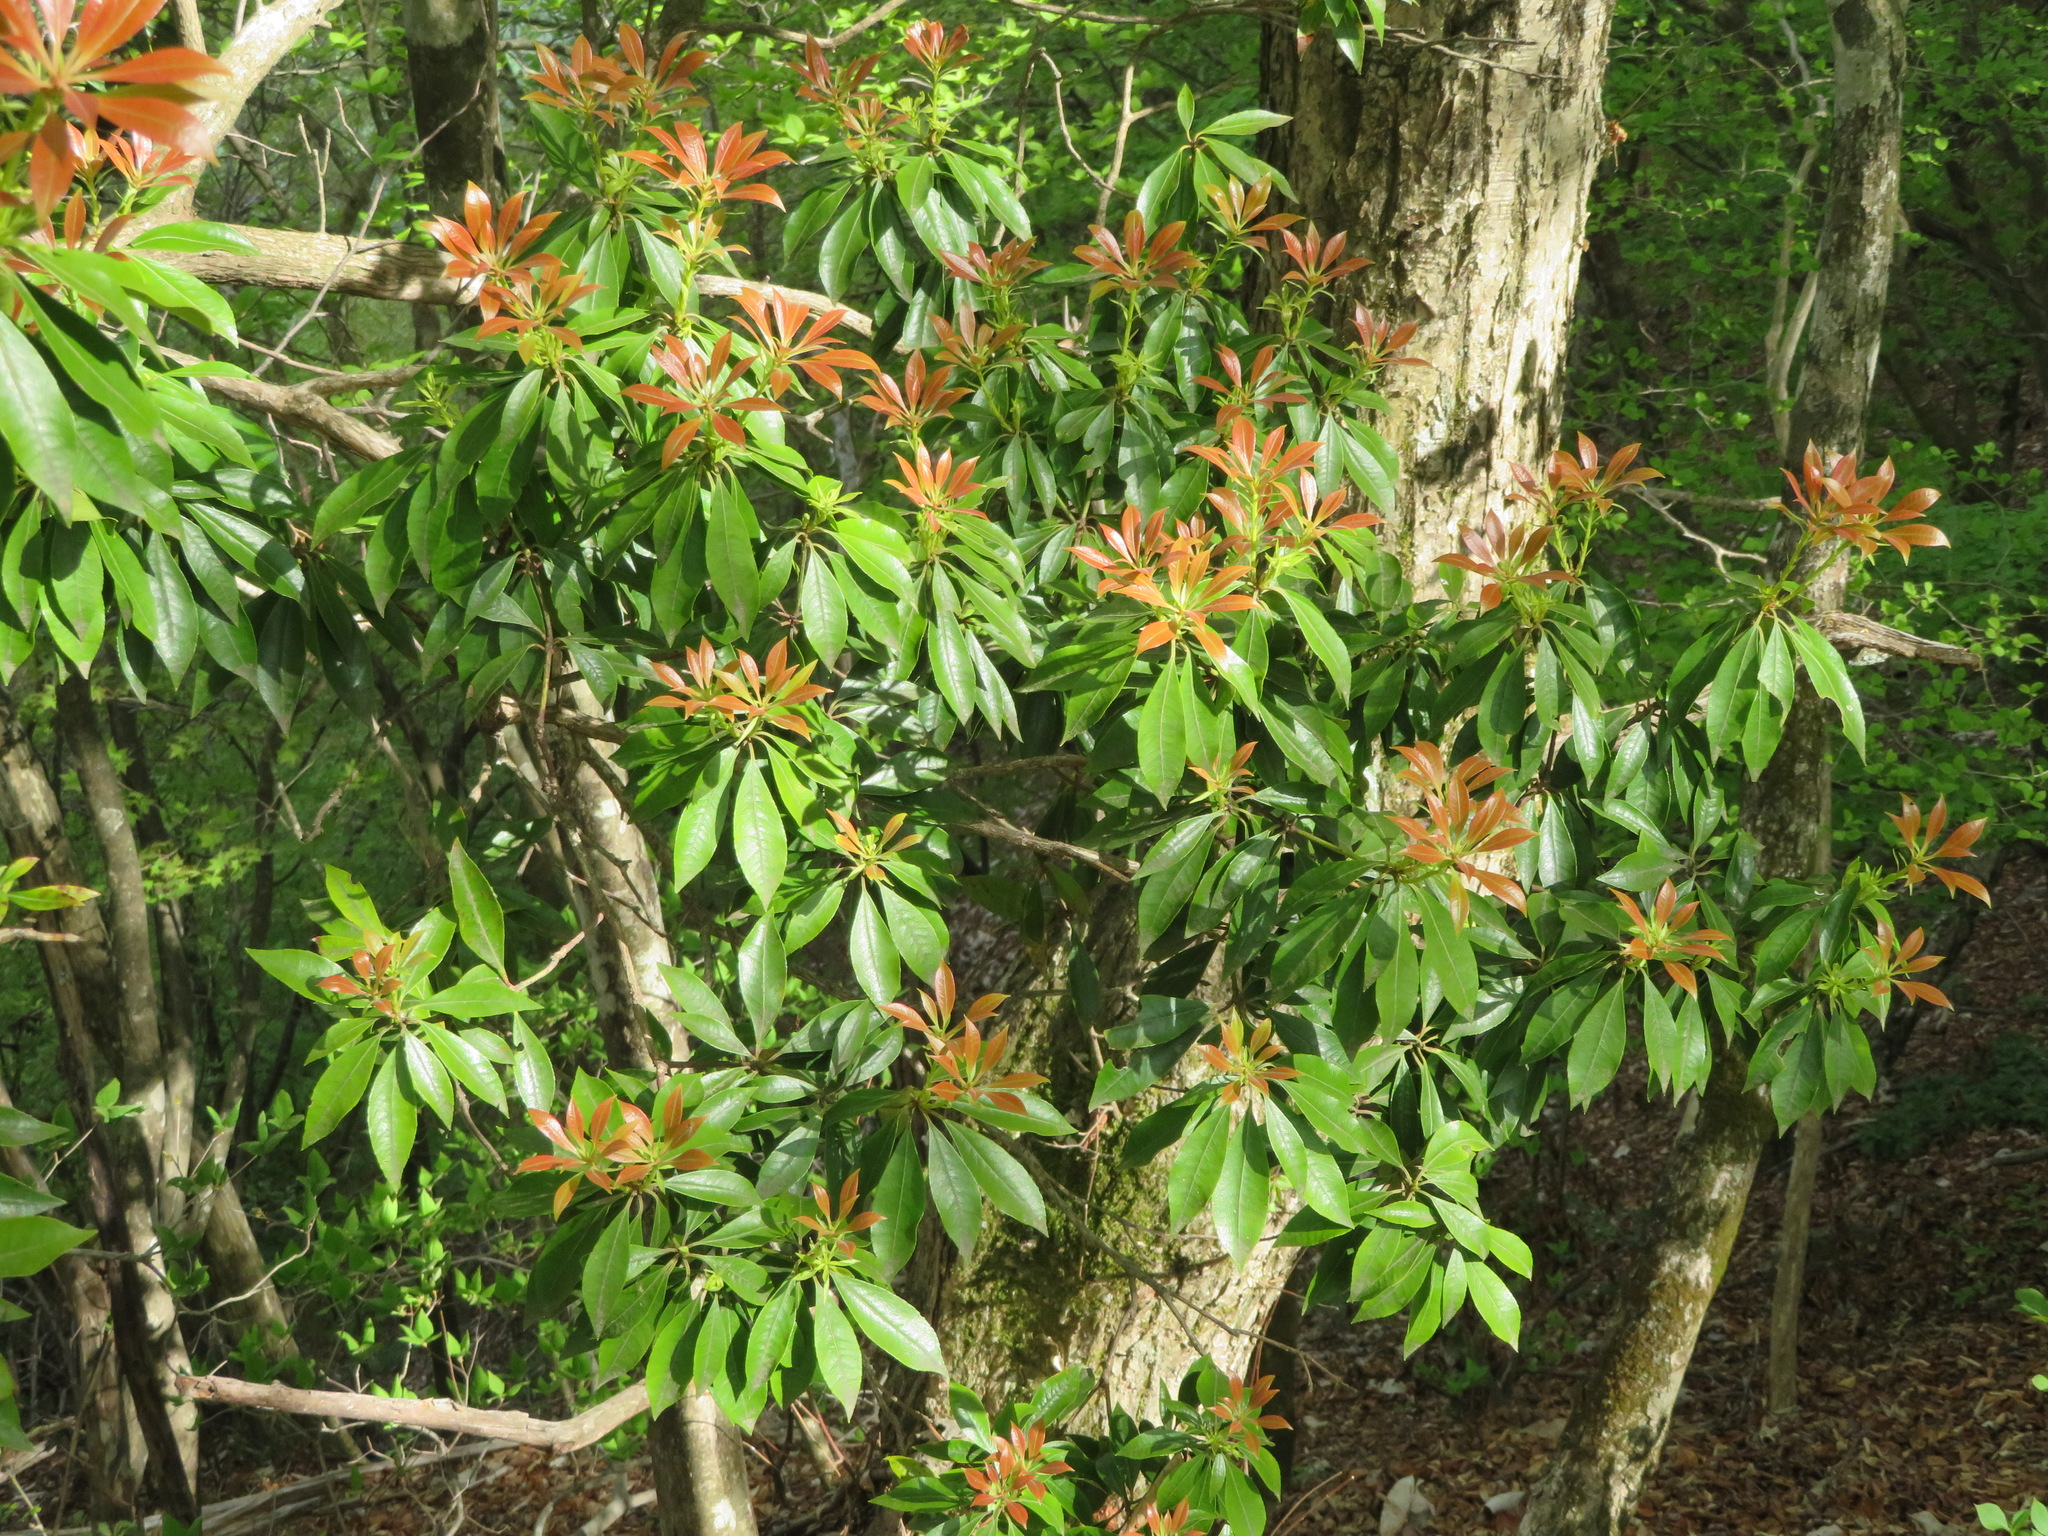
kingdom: Plantae
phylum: Tracheophyta
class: Magnoliopsida
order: Ericales
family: Ericaceae
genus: Pieris
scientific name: Pieris japonica
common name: Japanese pieris
